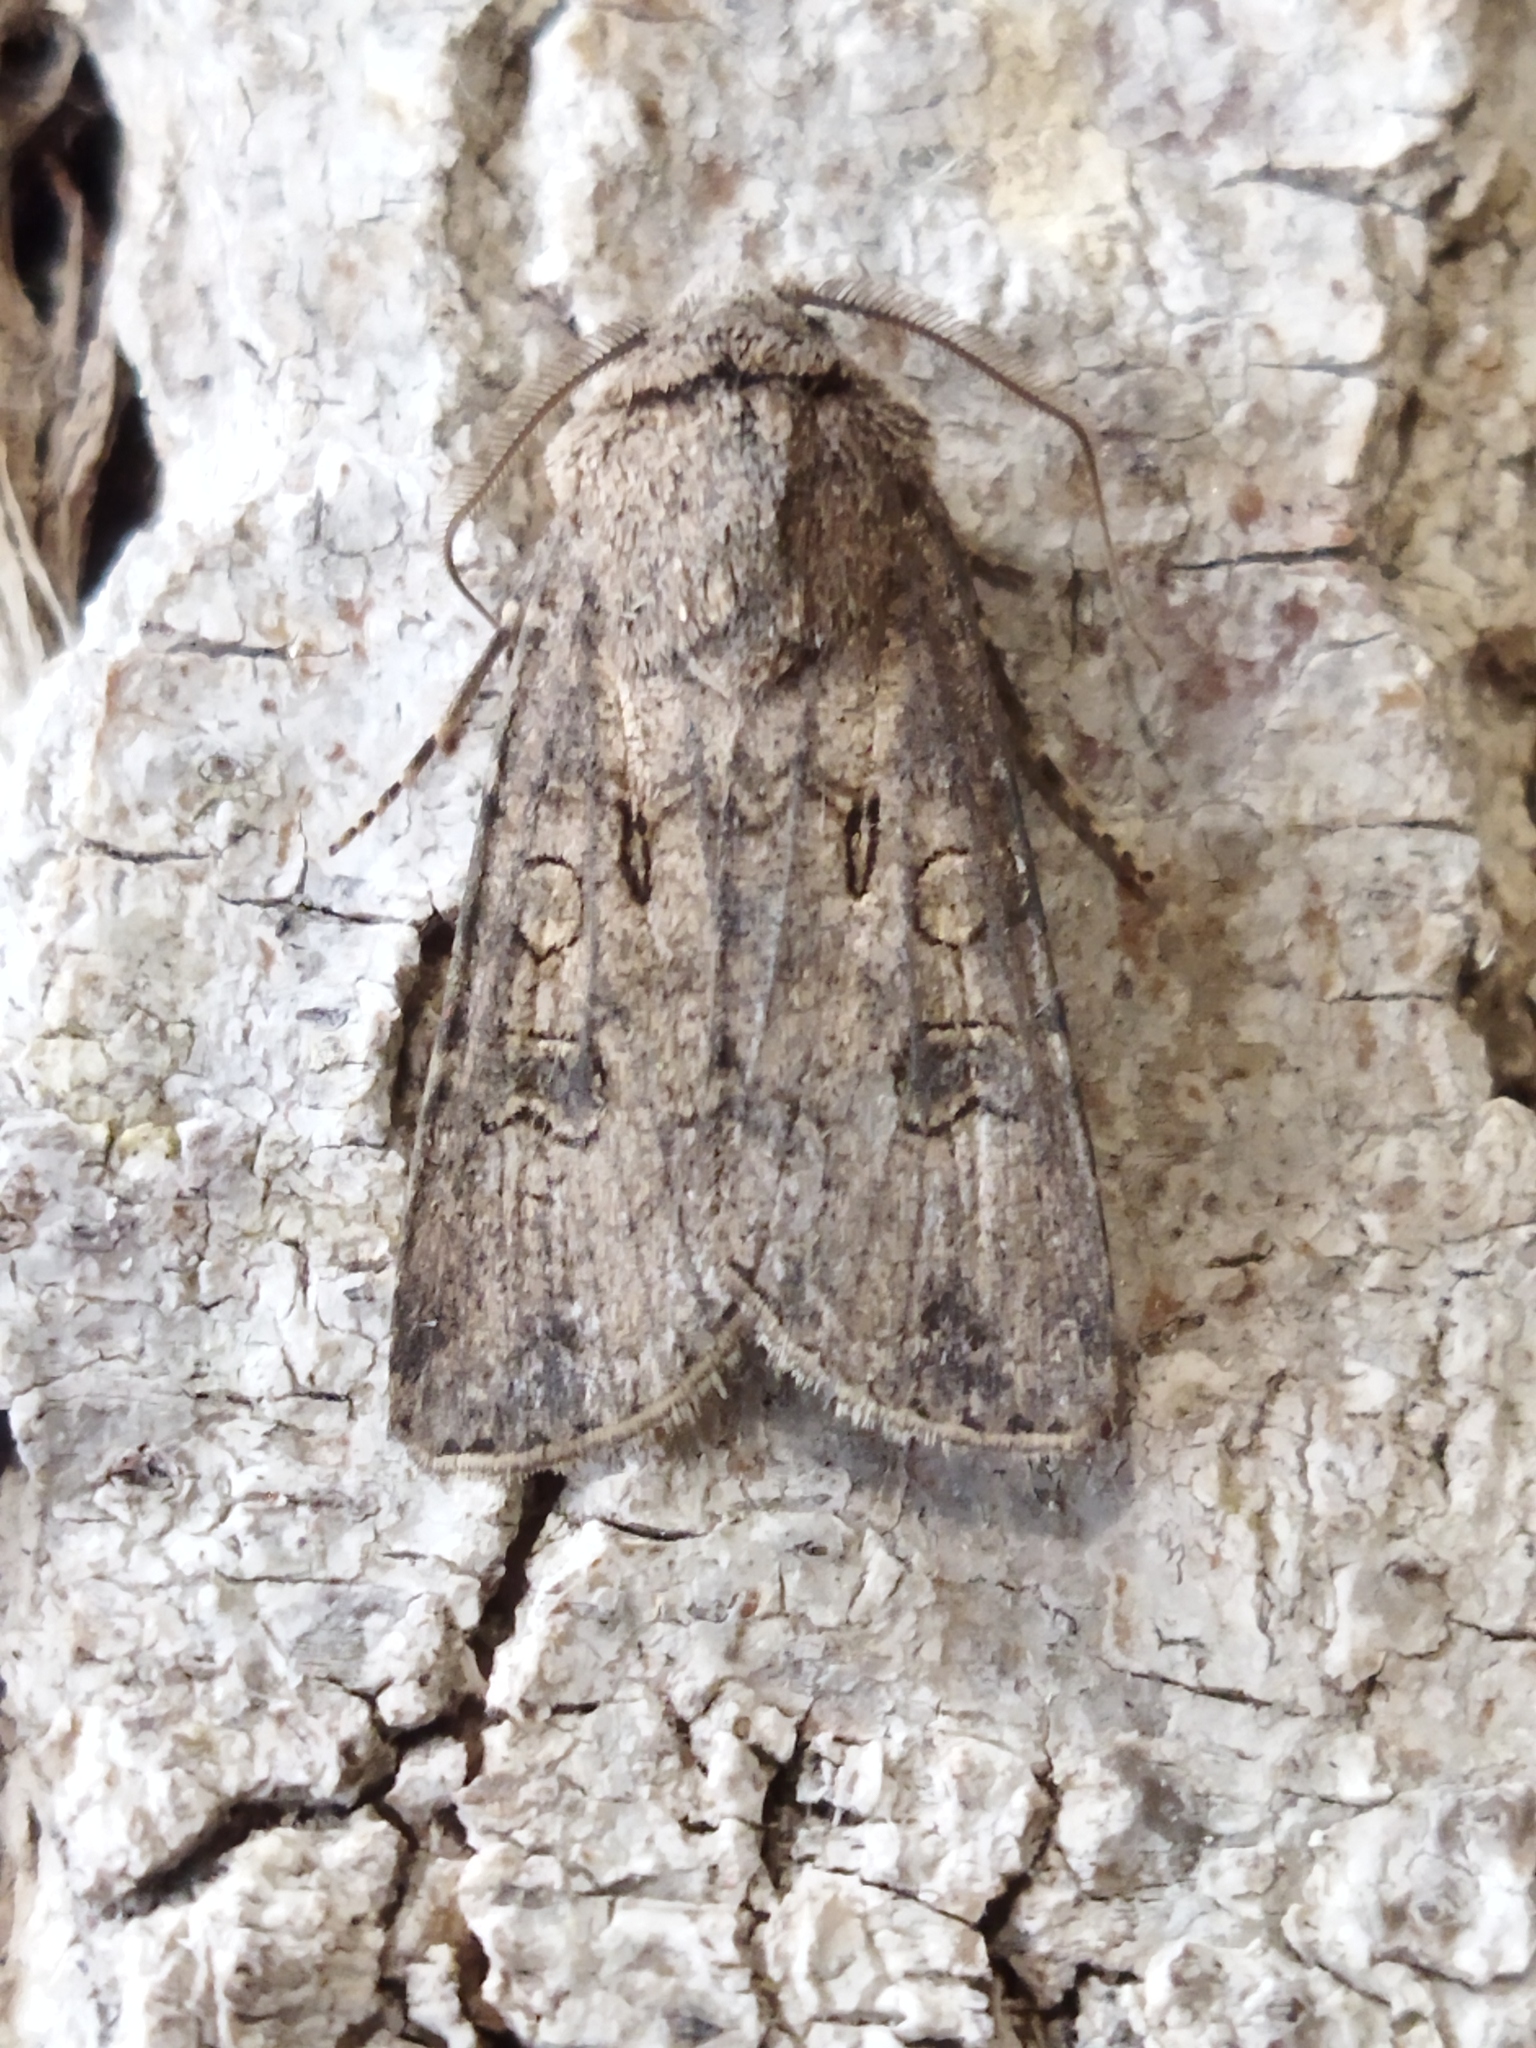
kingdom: Animalia
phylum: Arthropoda
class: Insecta
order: Lepidoptera
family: Noctuidae
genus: Agrotis
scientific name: Agrotis segetum
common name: Turnip moth
